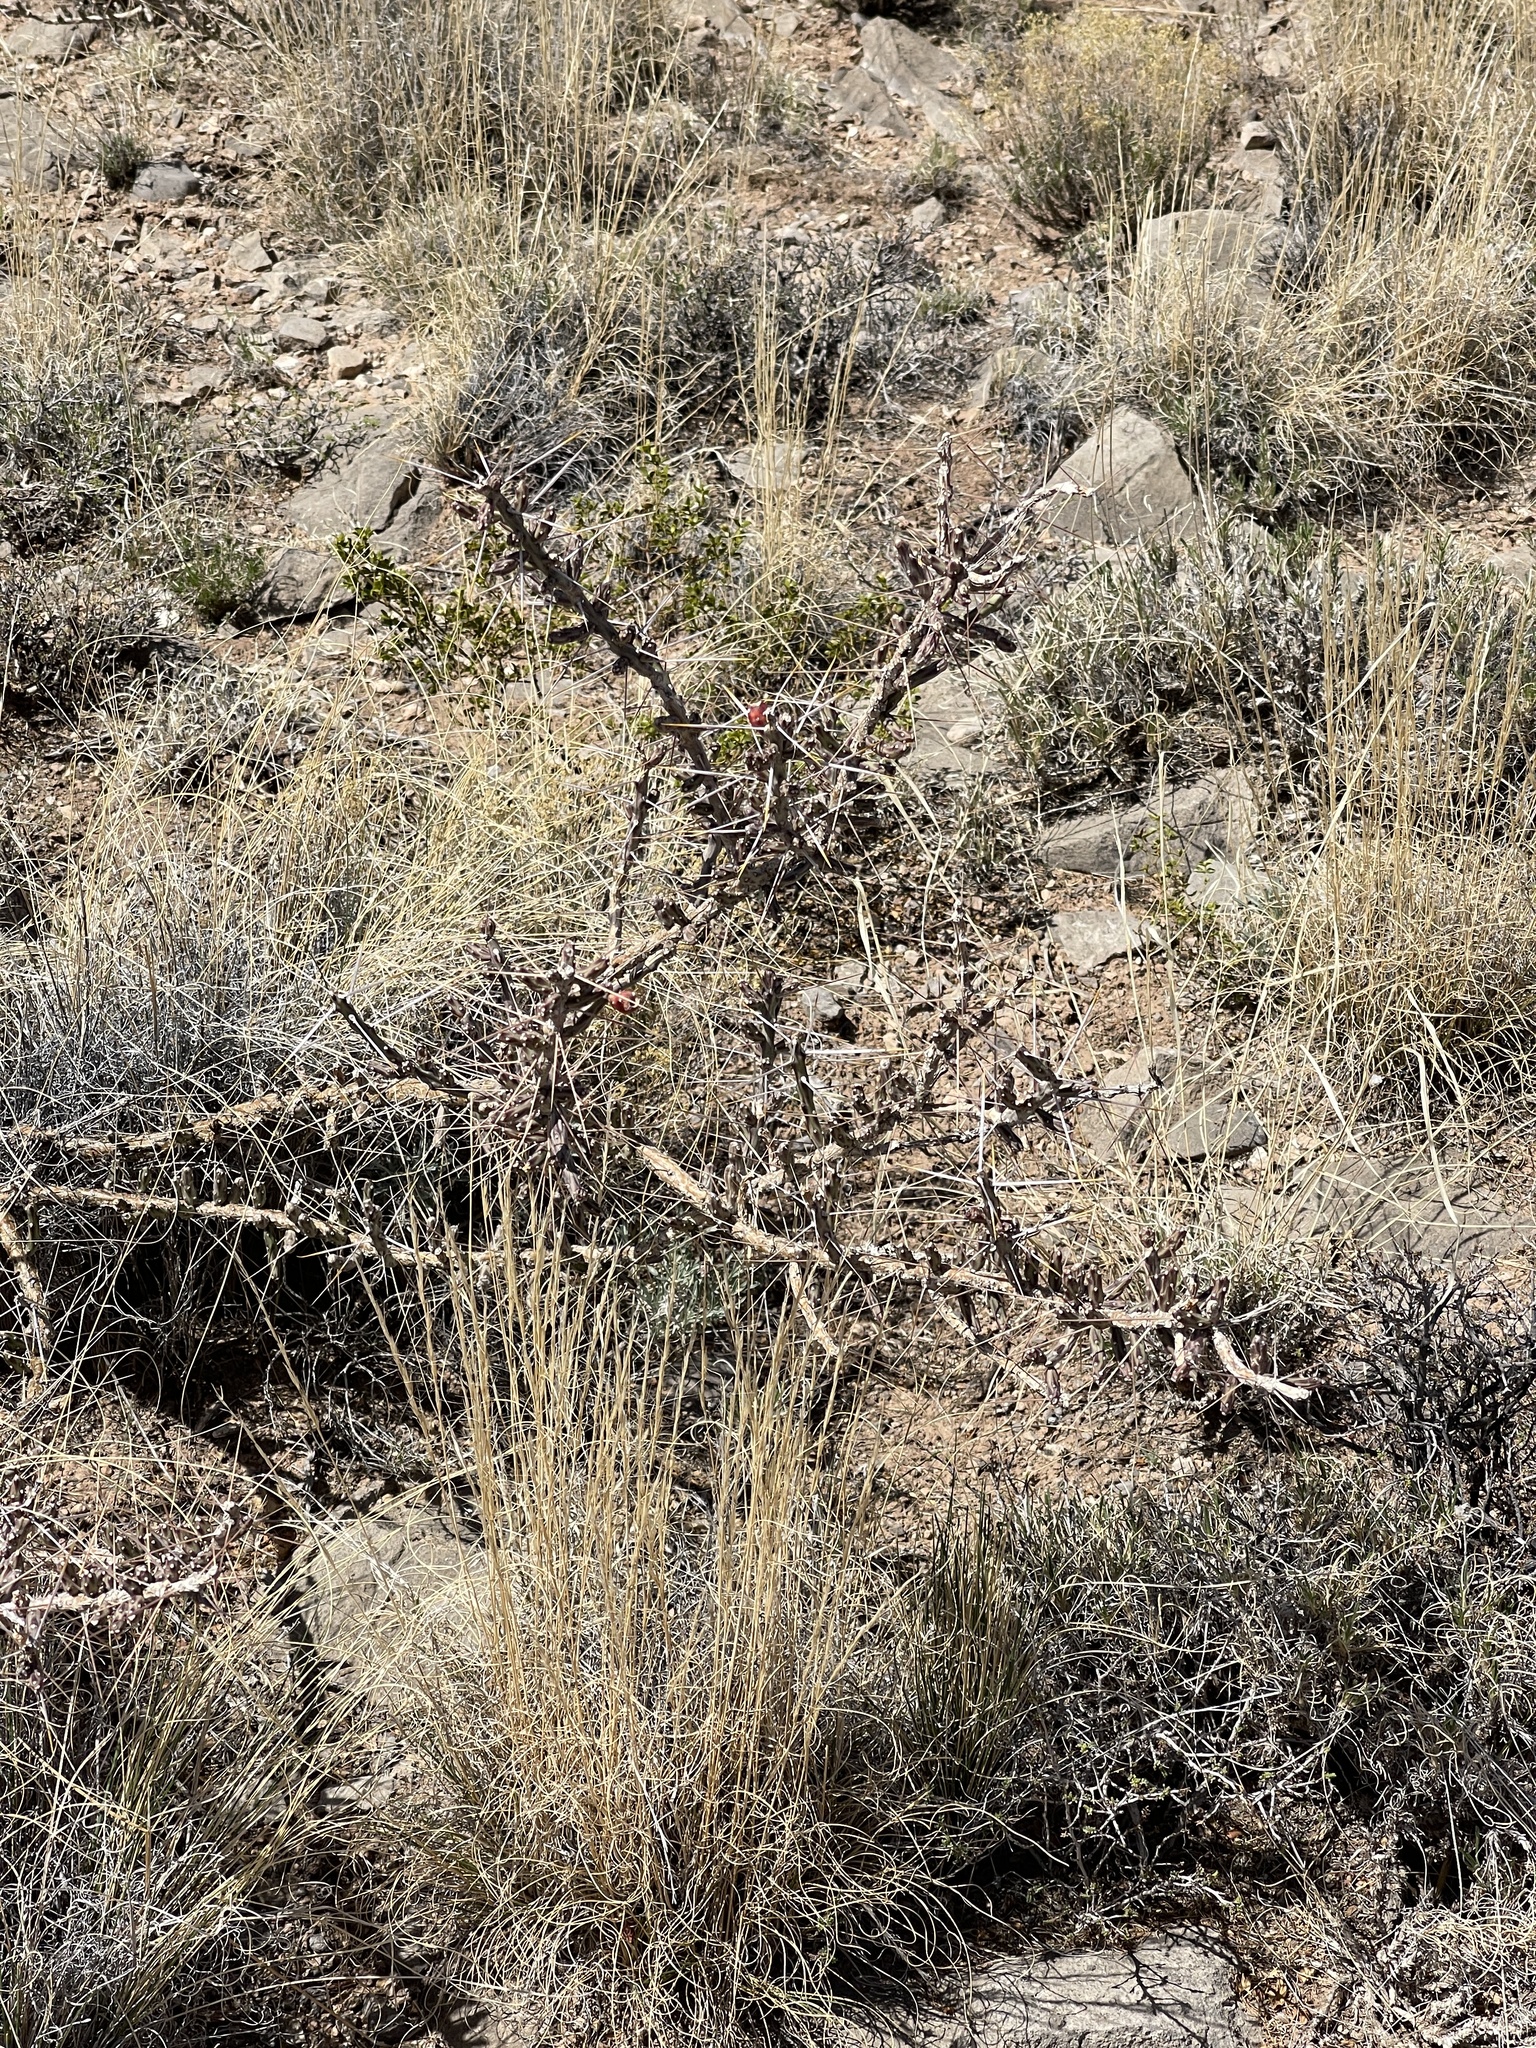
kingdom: Plantae
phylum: Tracheophyta
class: Magnoliopsida
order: Caryophyllales
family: Cactaceae
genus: Cylindropuntia
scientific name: Cylindropuntia leptocaulis
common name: Christmas cactus
